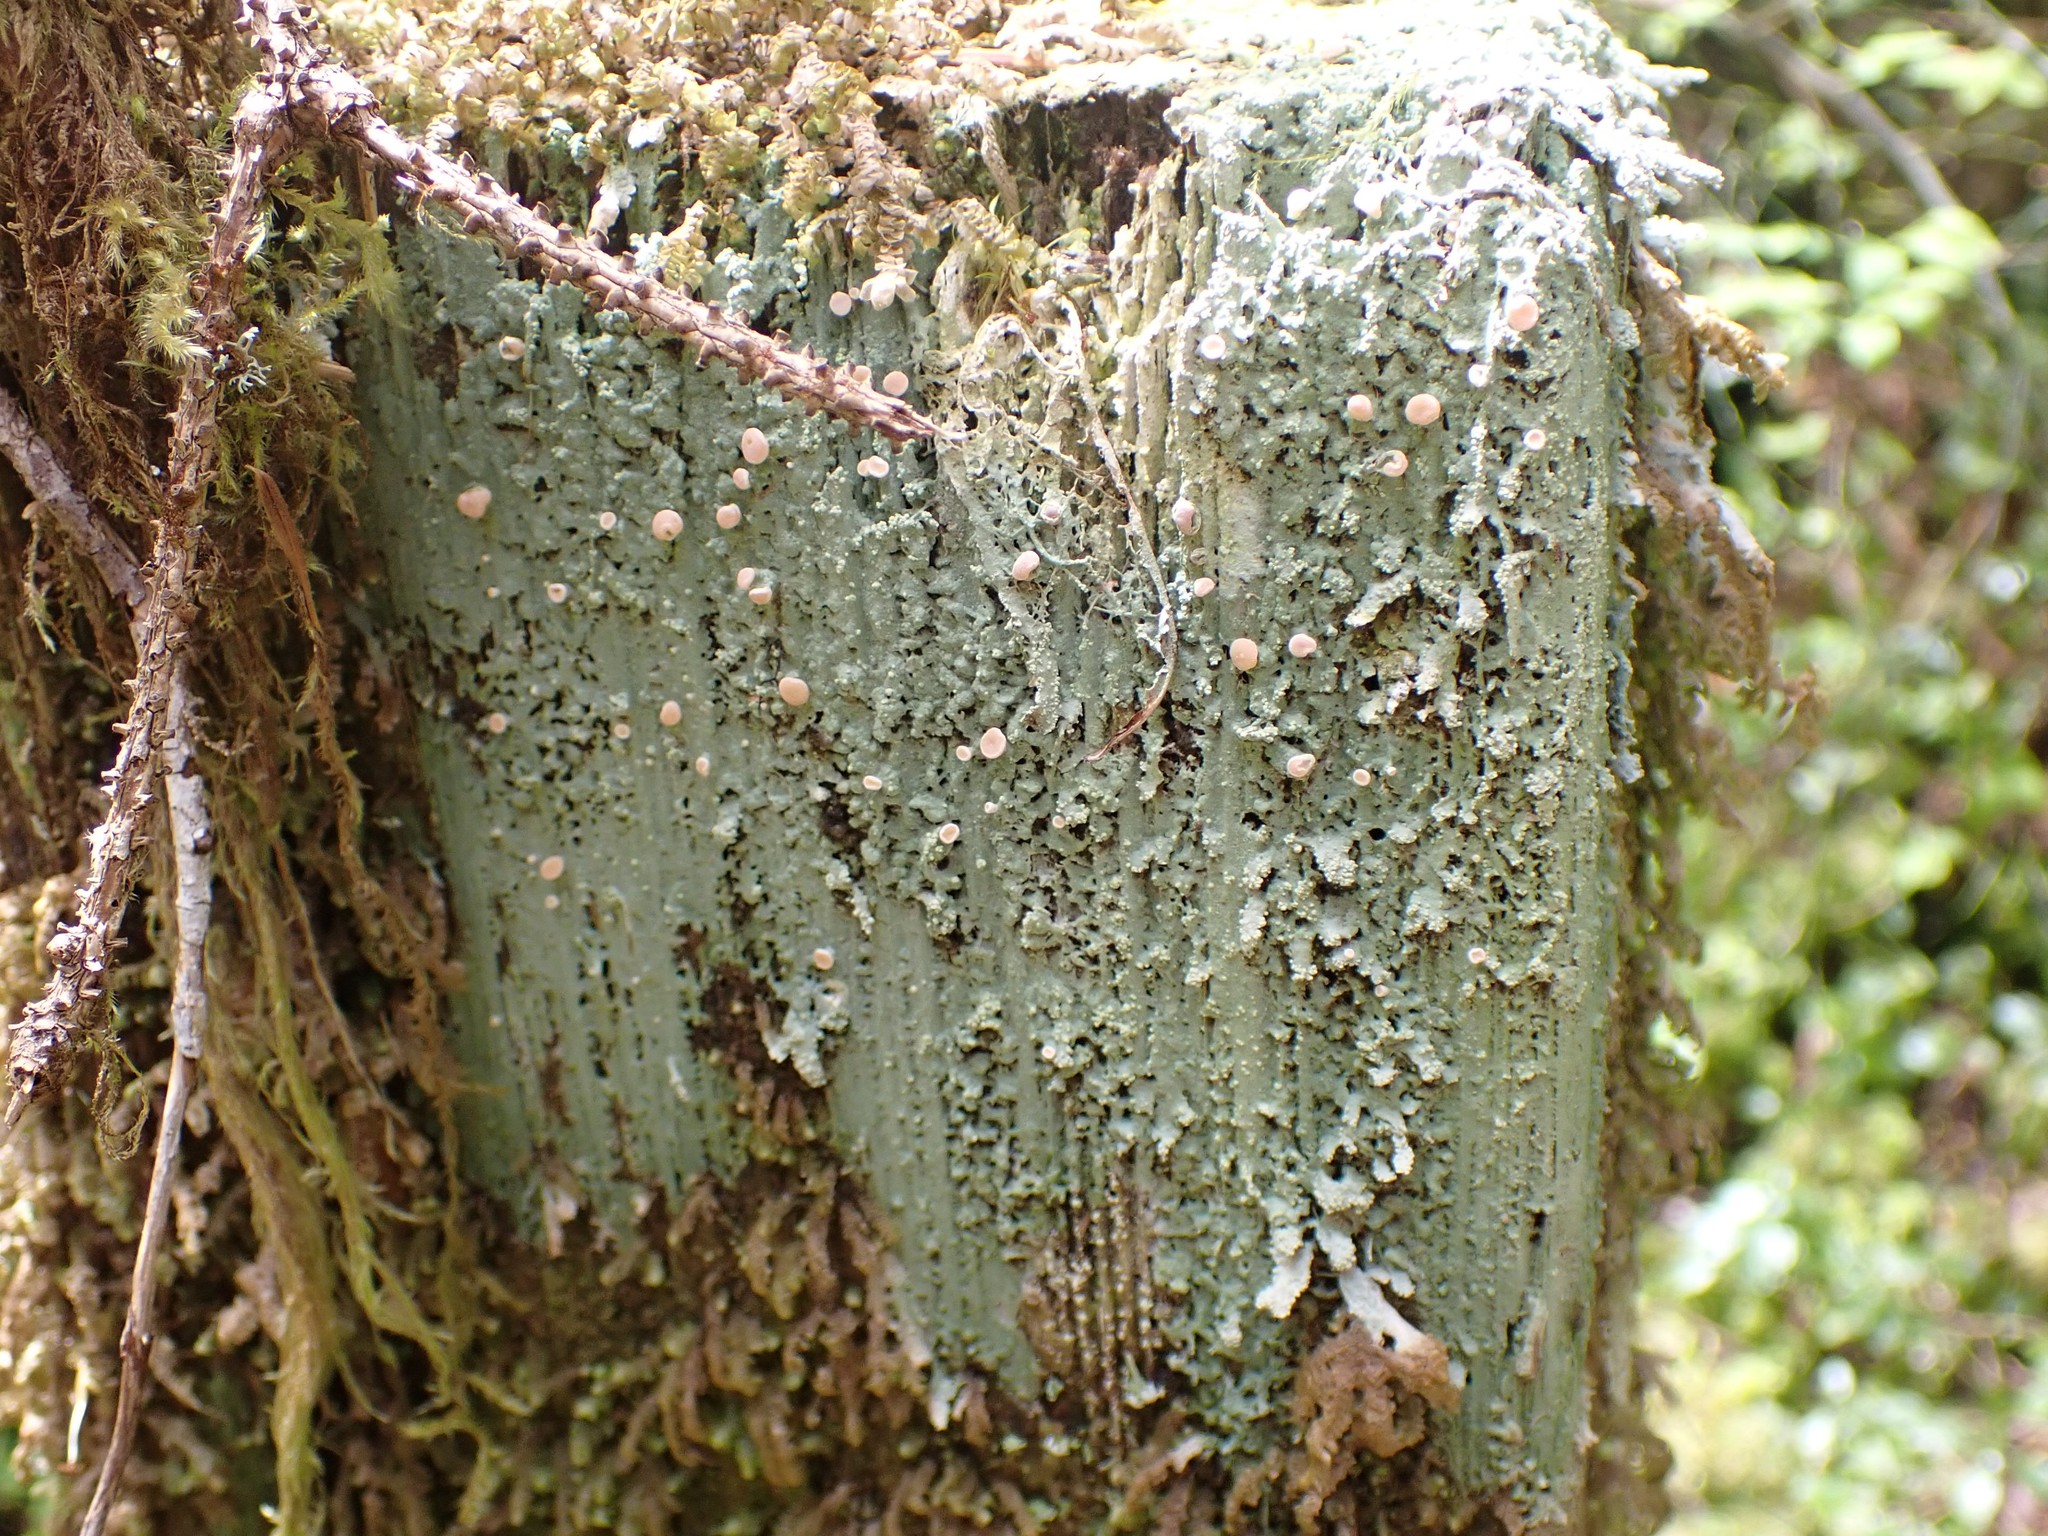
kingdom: Fungi
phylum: Ascomycota
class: Lecanoromycetes
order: Pertusariales
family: Icmadophilaceae
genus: Icmadophila
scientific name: Icmadophila ericetorum
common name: Candy lichen
